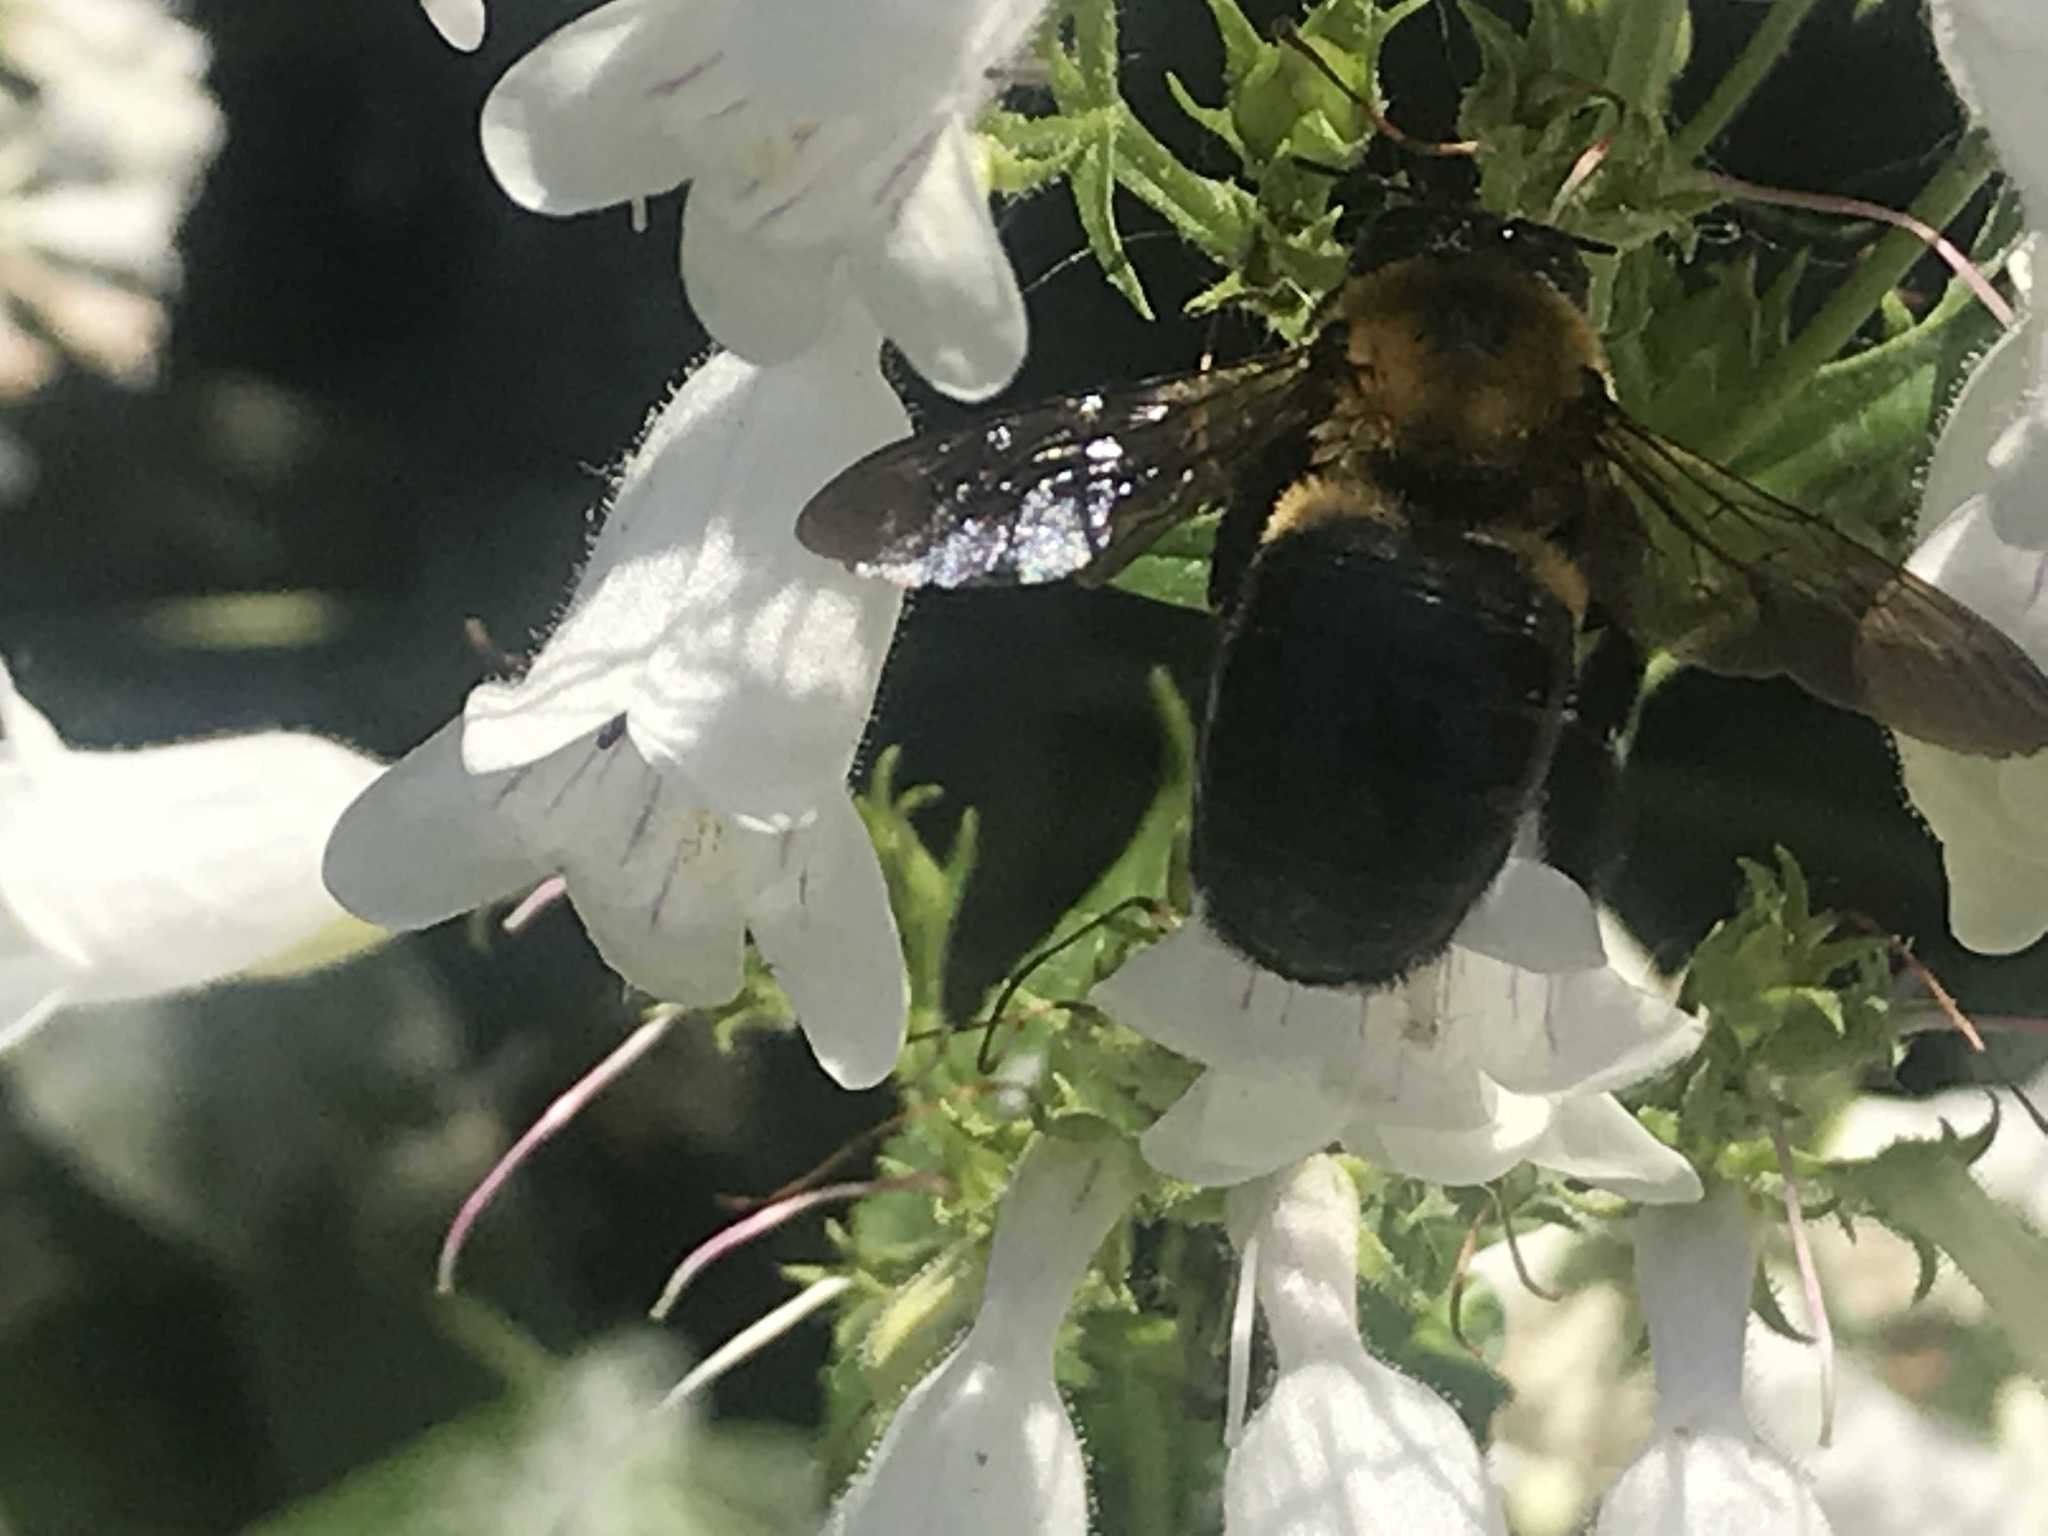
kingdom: Animalia
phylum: Arthropoda
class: Insecta
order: Hymenoptera
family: Apidae
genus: Xylocopa
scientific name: Xylocopa virginica
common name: Carpenter bee
